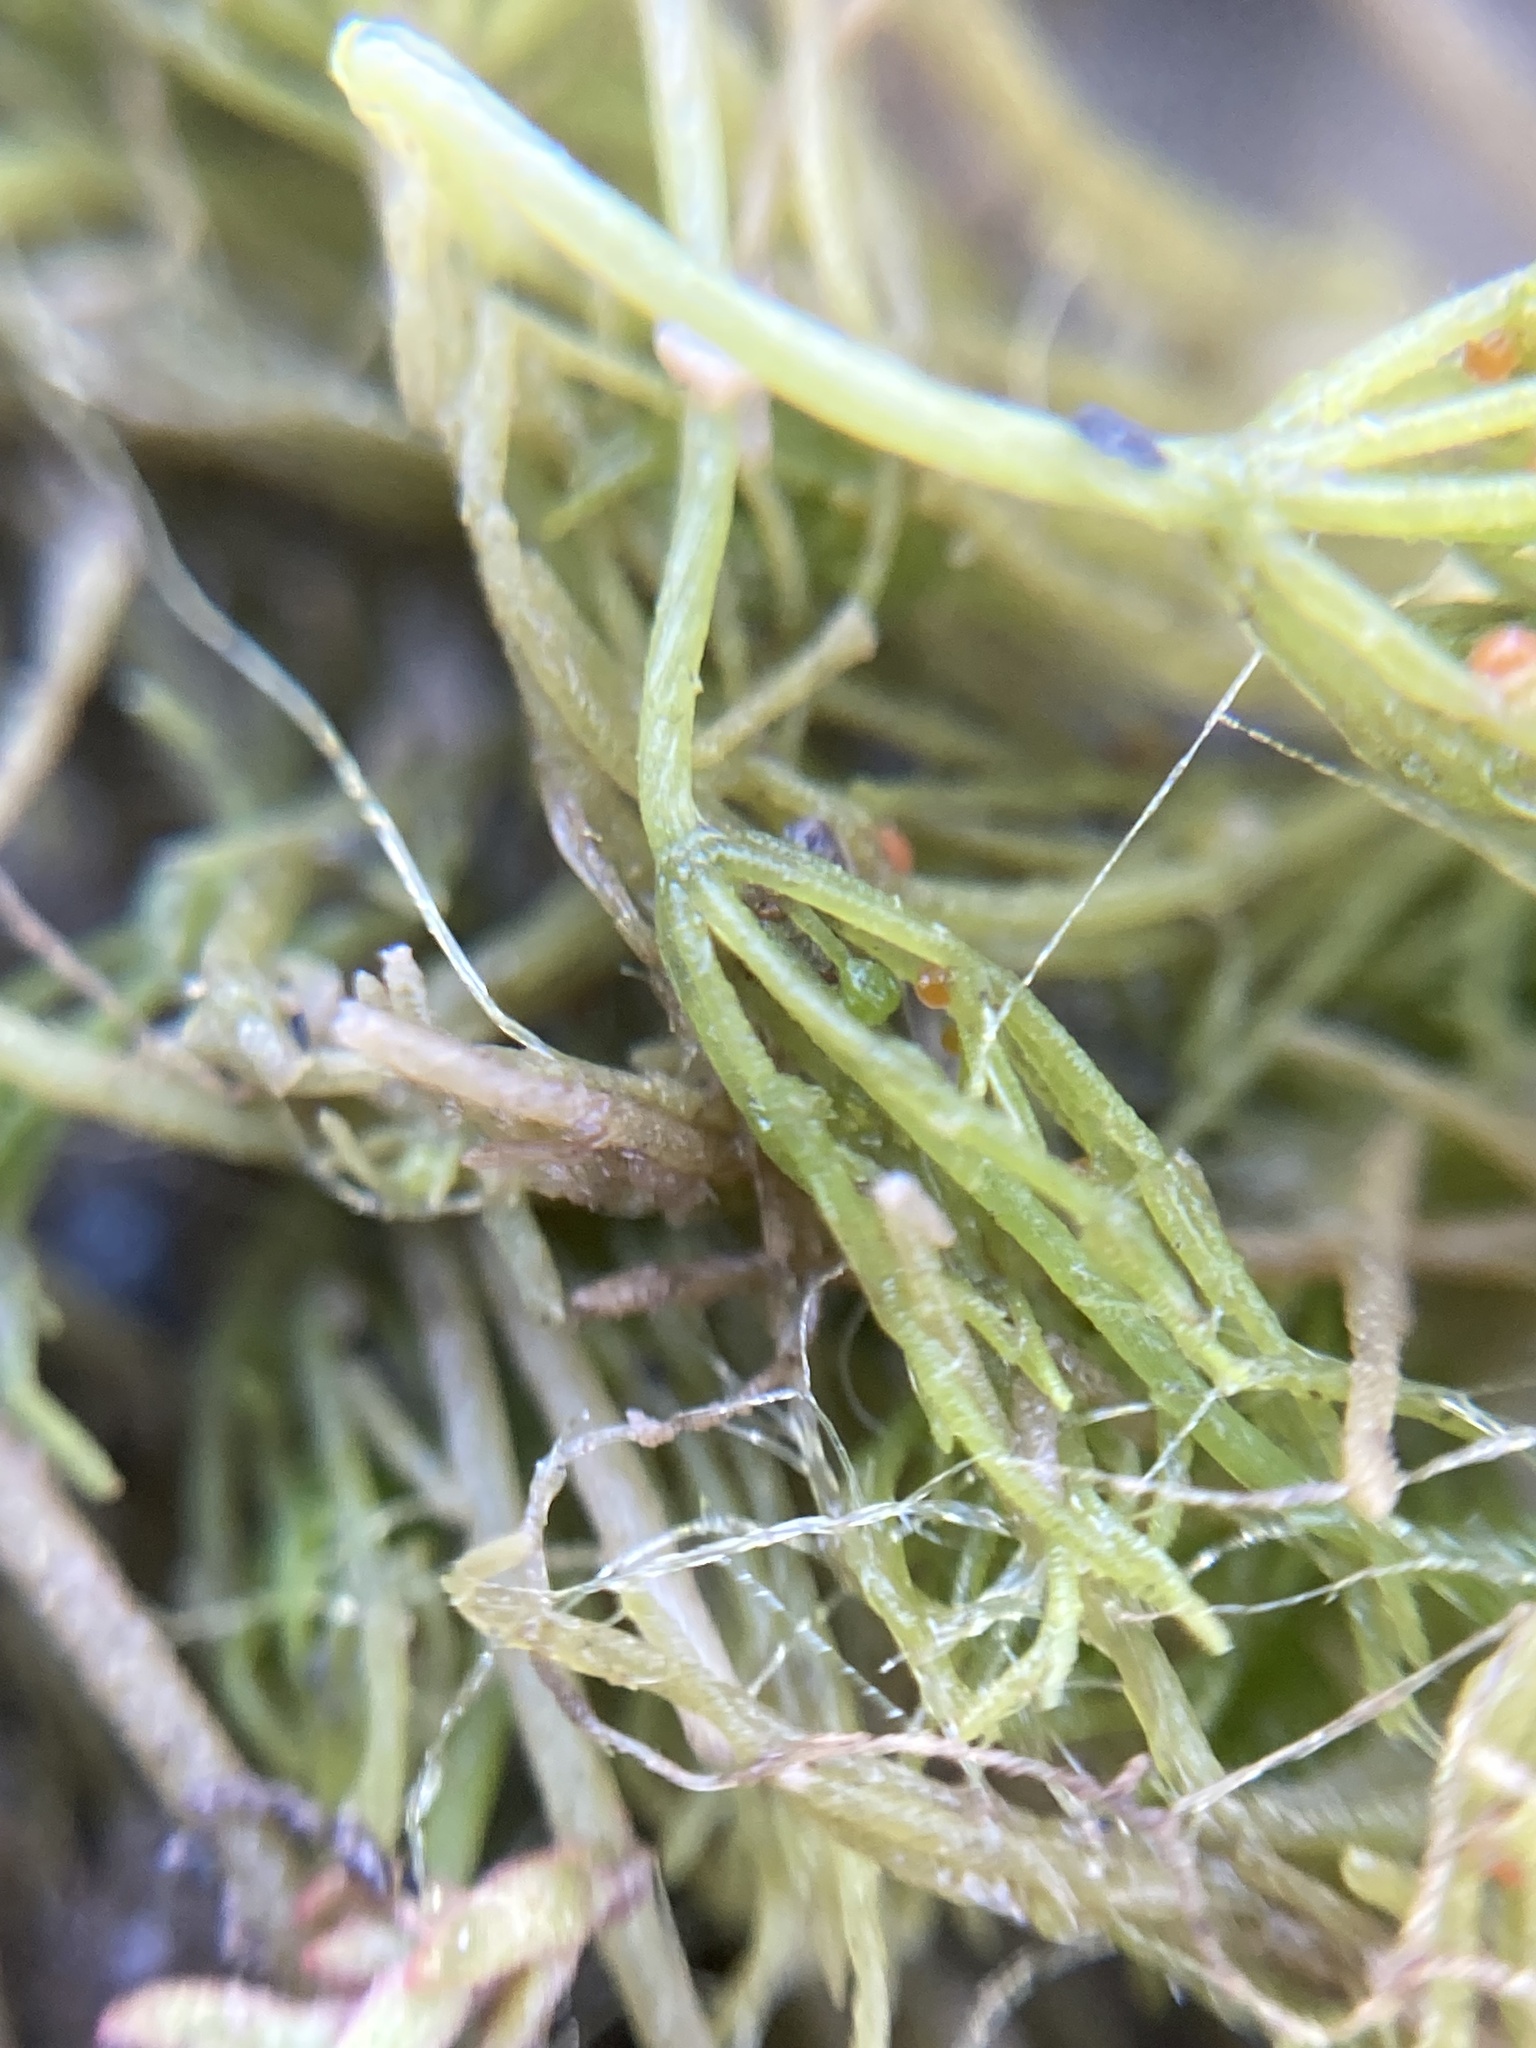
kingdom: Plantae
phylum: Charophyta
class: Charophyceae
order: Charales
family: Characeae
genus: Chara
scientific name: Chara vulgaris
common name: Common stonewort
